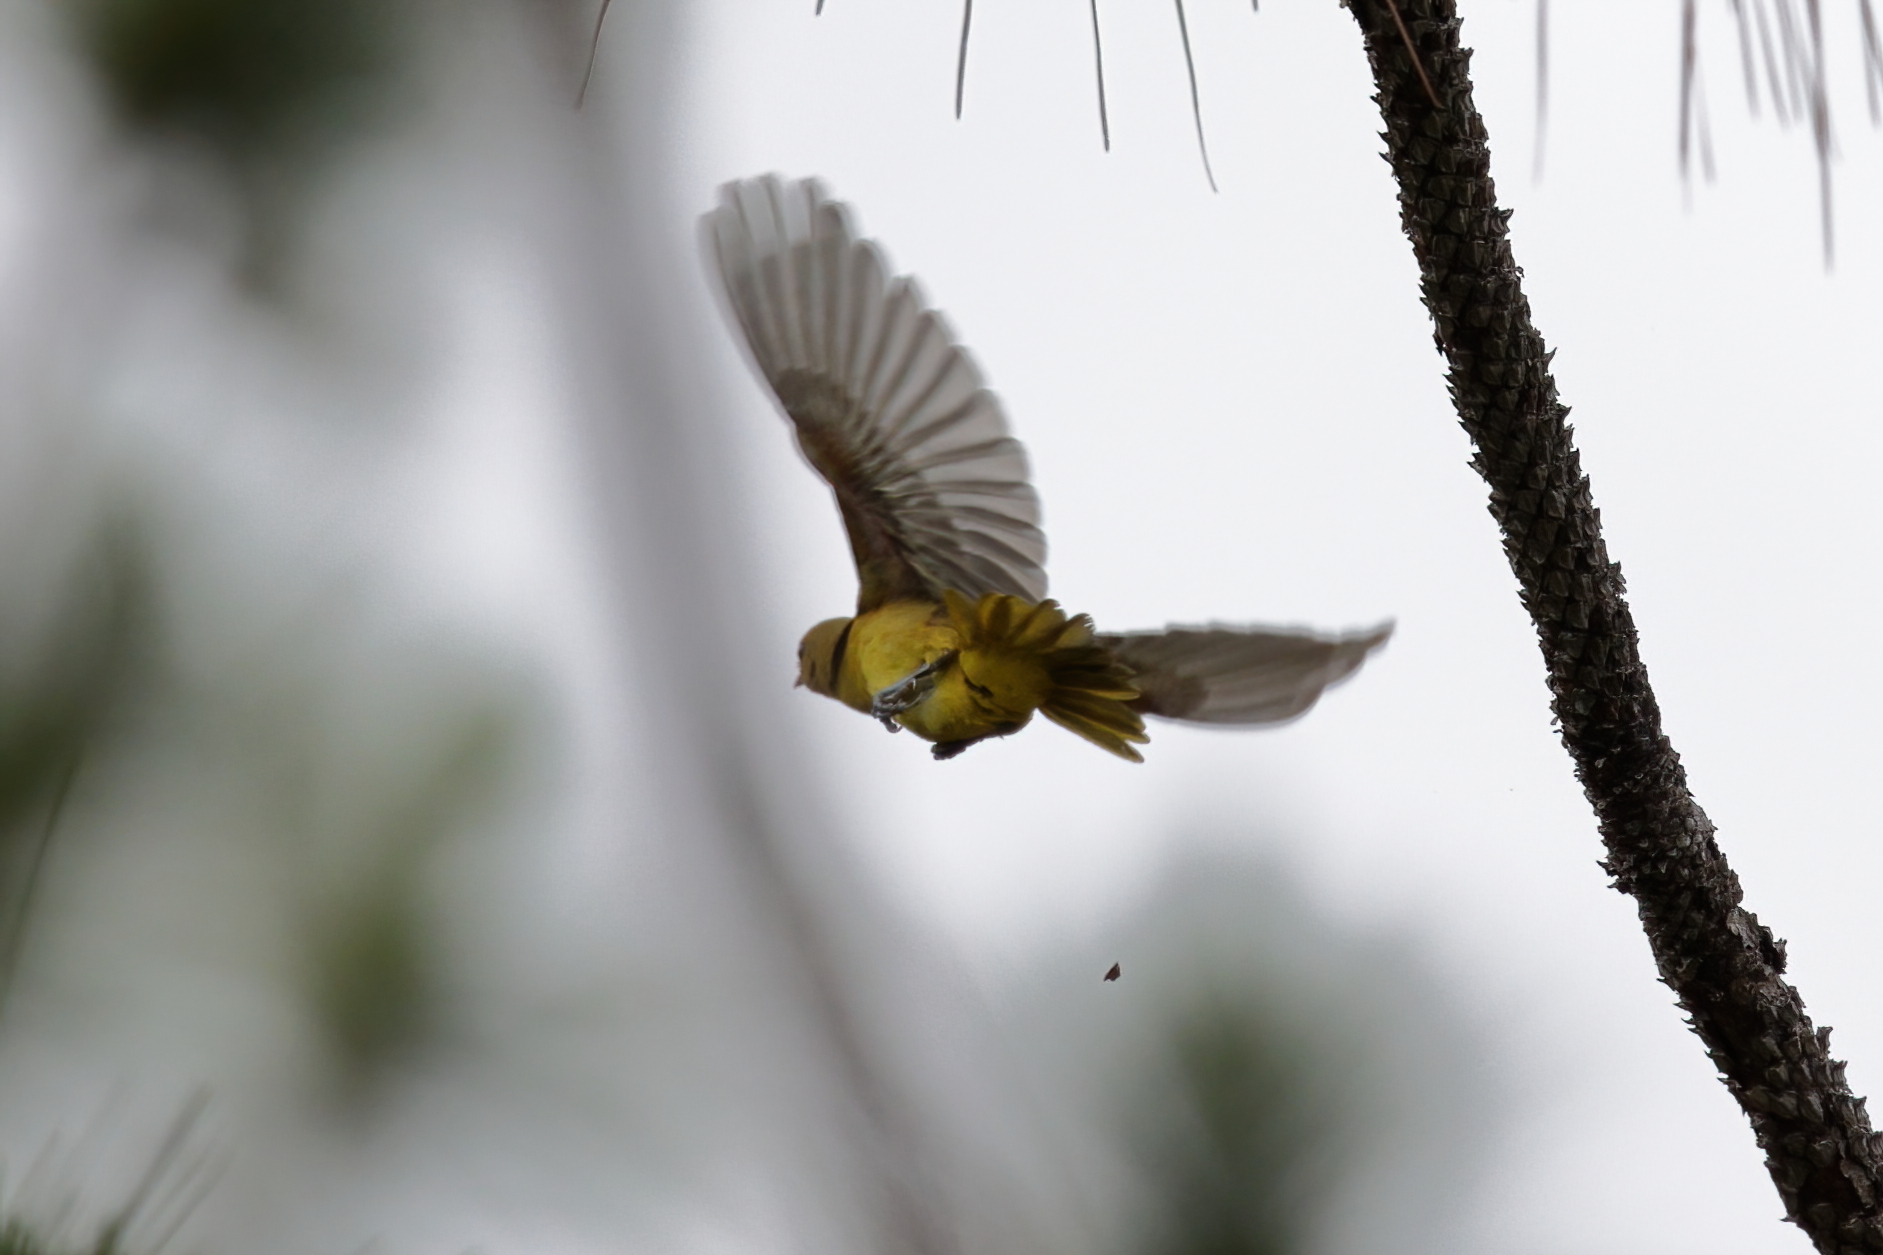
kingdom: Animalia
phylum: Chordata
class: Aves
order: Passeriformes
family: Icteridae
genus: Icterus
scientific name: Icterus spurius
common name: Orchard oriole
